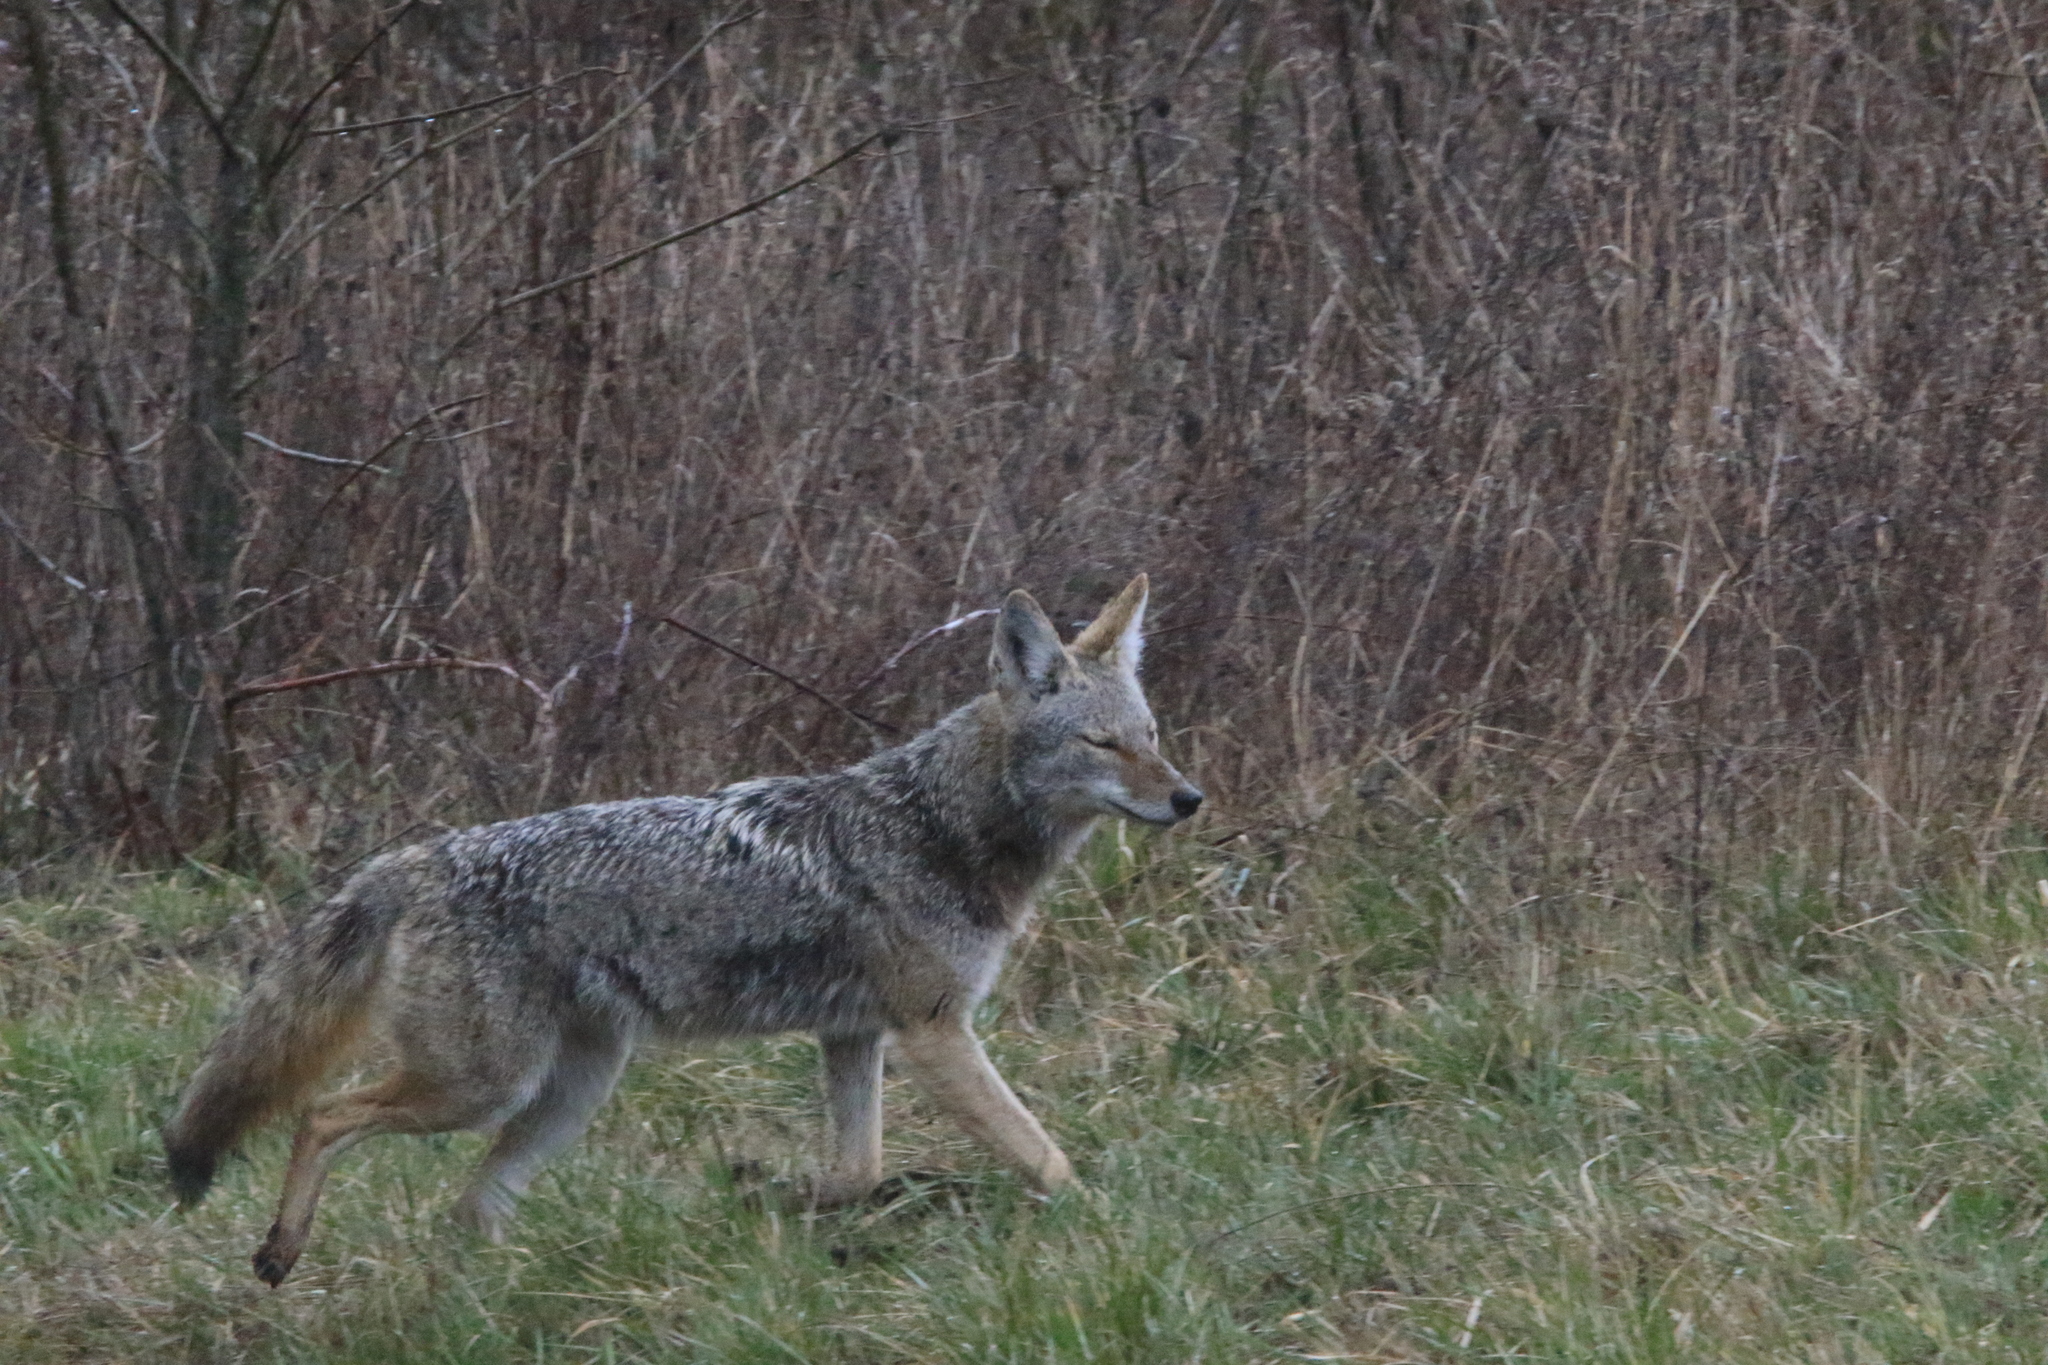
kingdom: Animalia
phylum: Chordata
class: Mammalia
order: Carnivora
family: Canidae
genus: Canis
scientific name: Canis latrans
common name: Coyote
